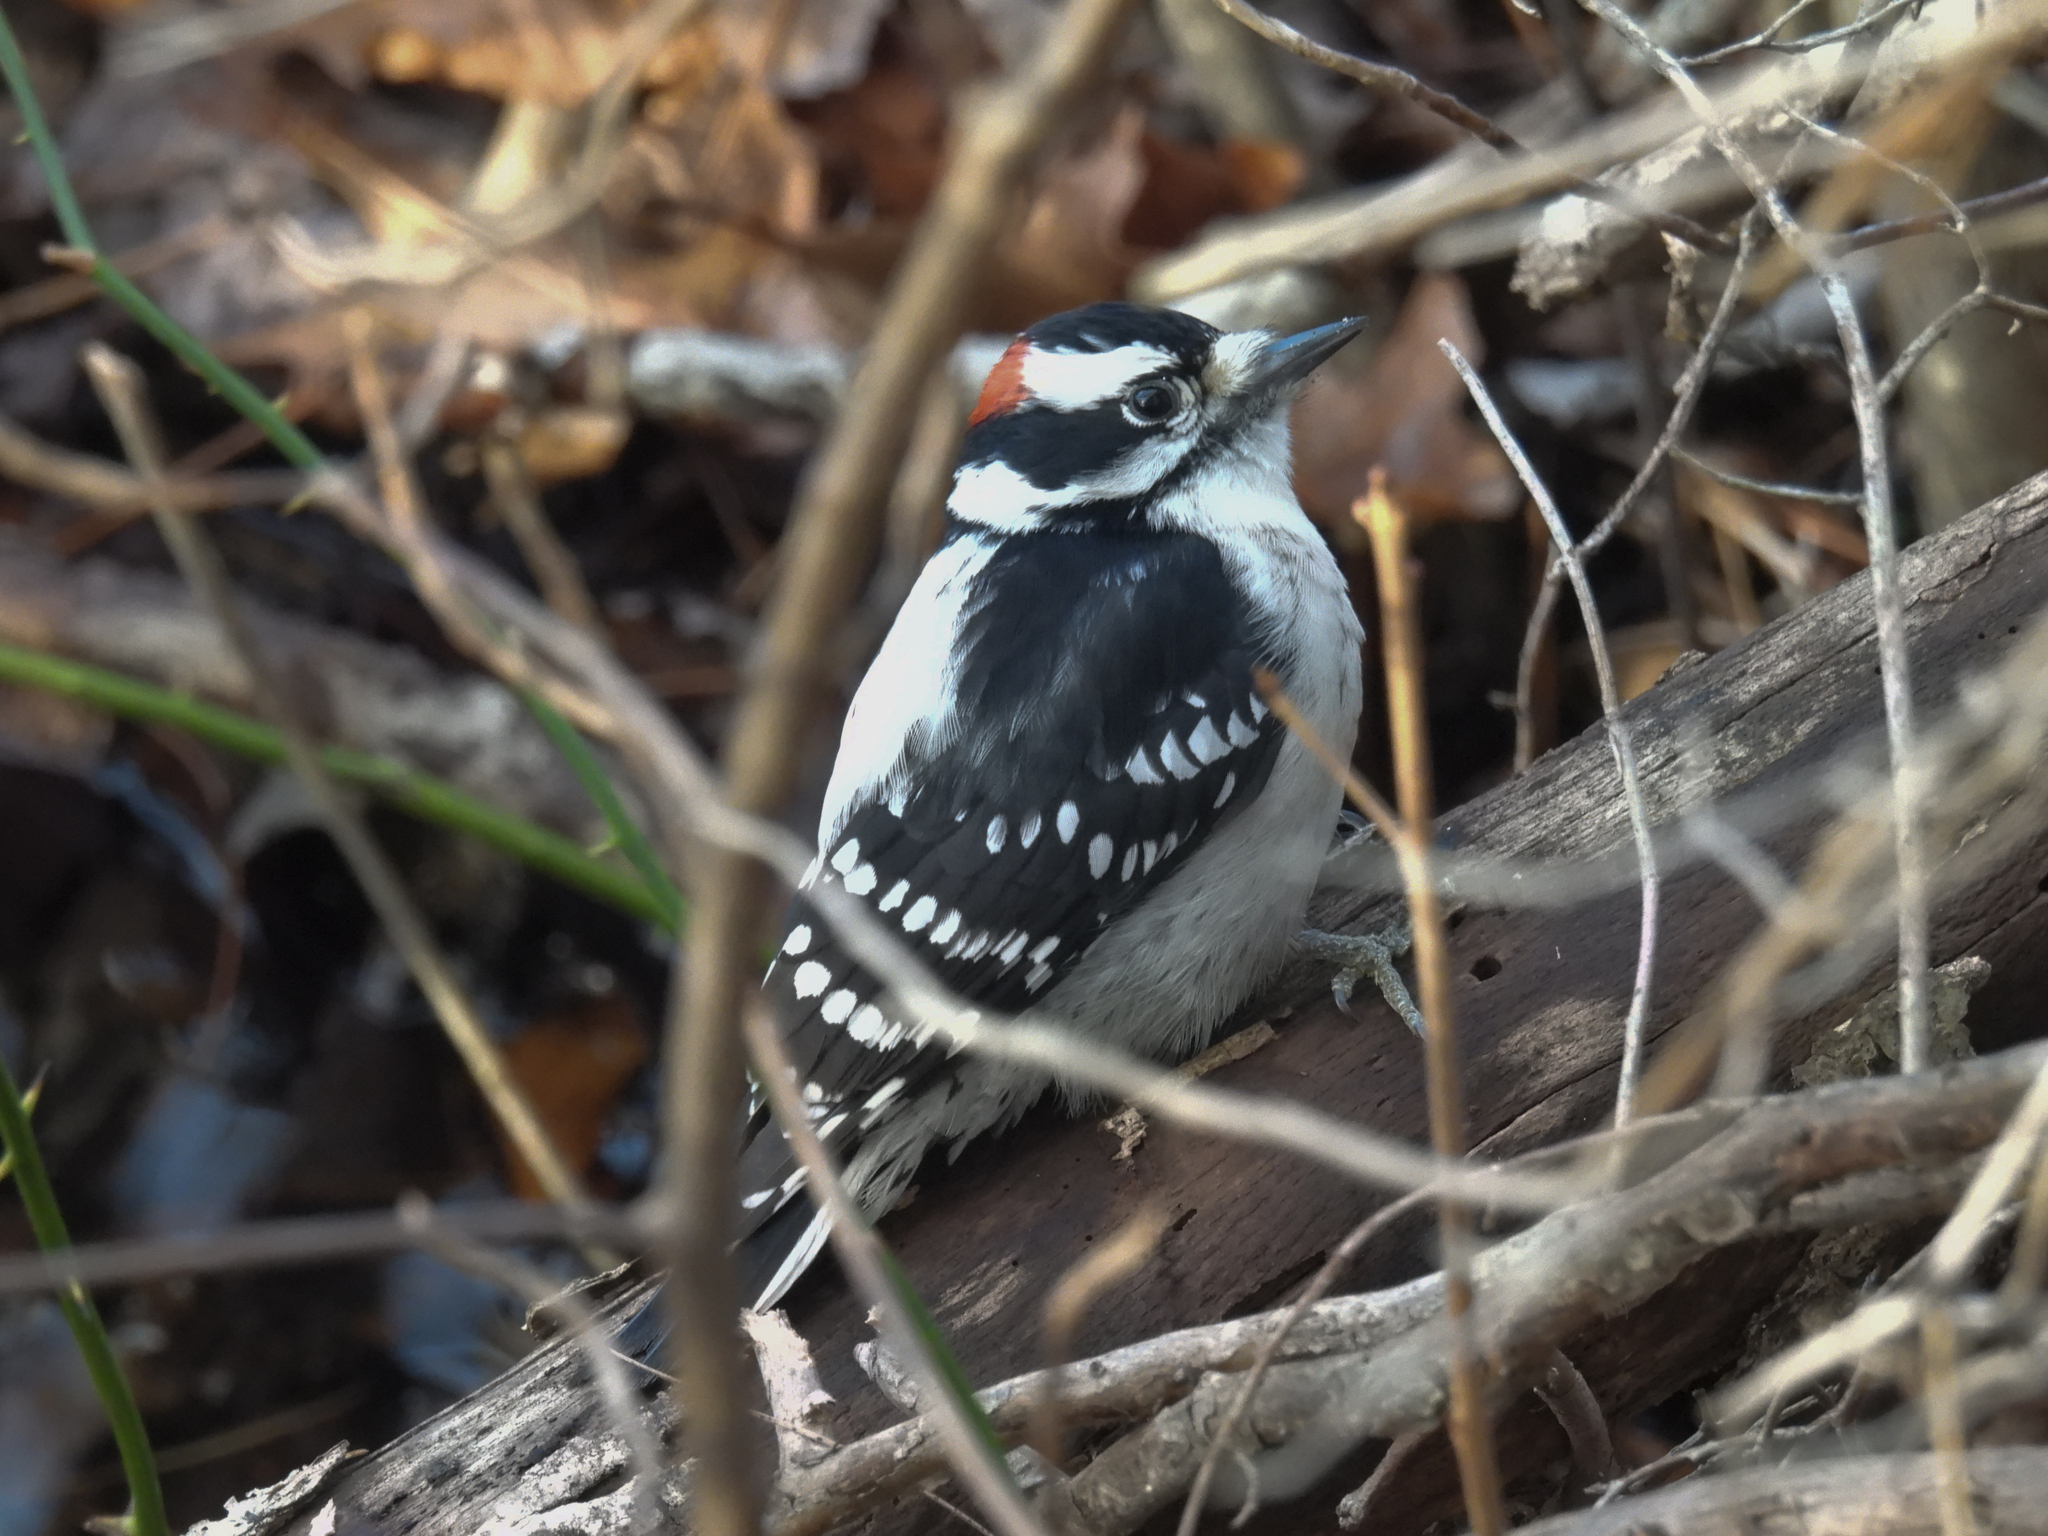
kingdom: Animalia
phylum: Chordata
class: Aves
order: Piciformes
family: Picidae
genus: Dryobates
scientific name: Dryobates pubescens
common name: Downy woodpecker
